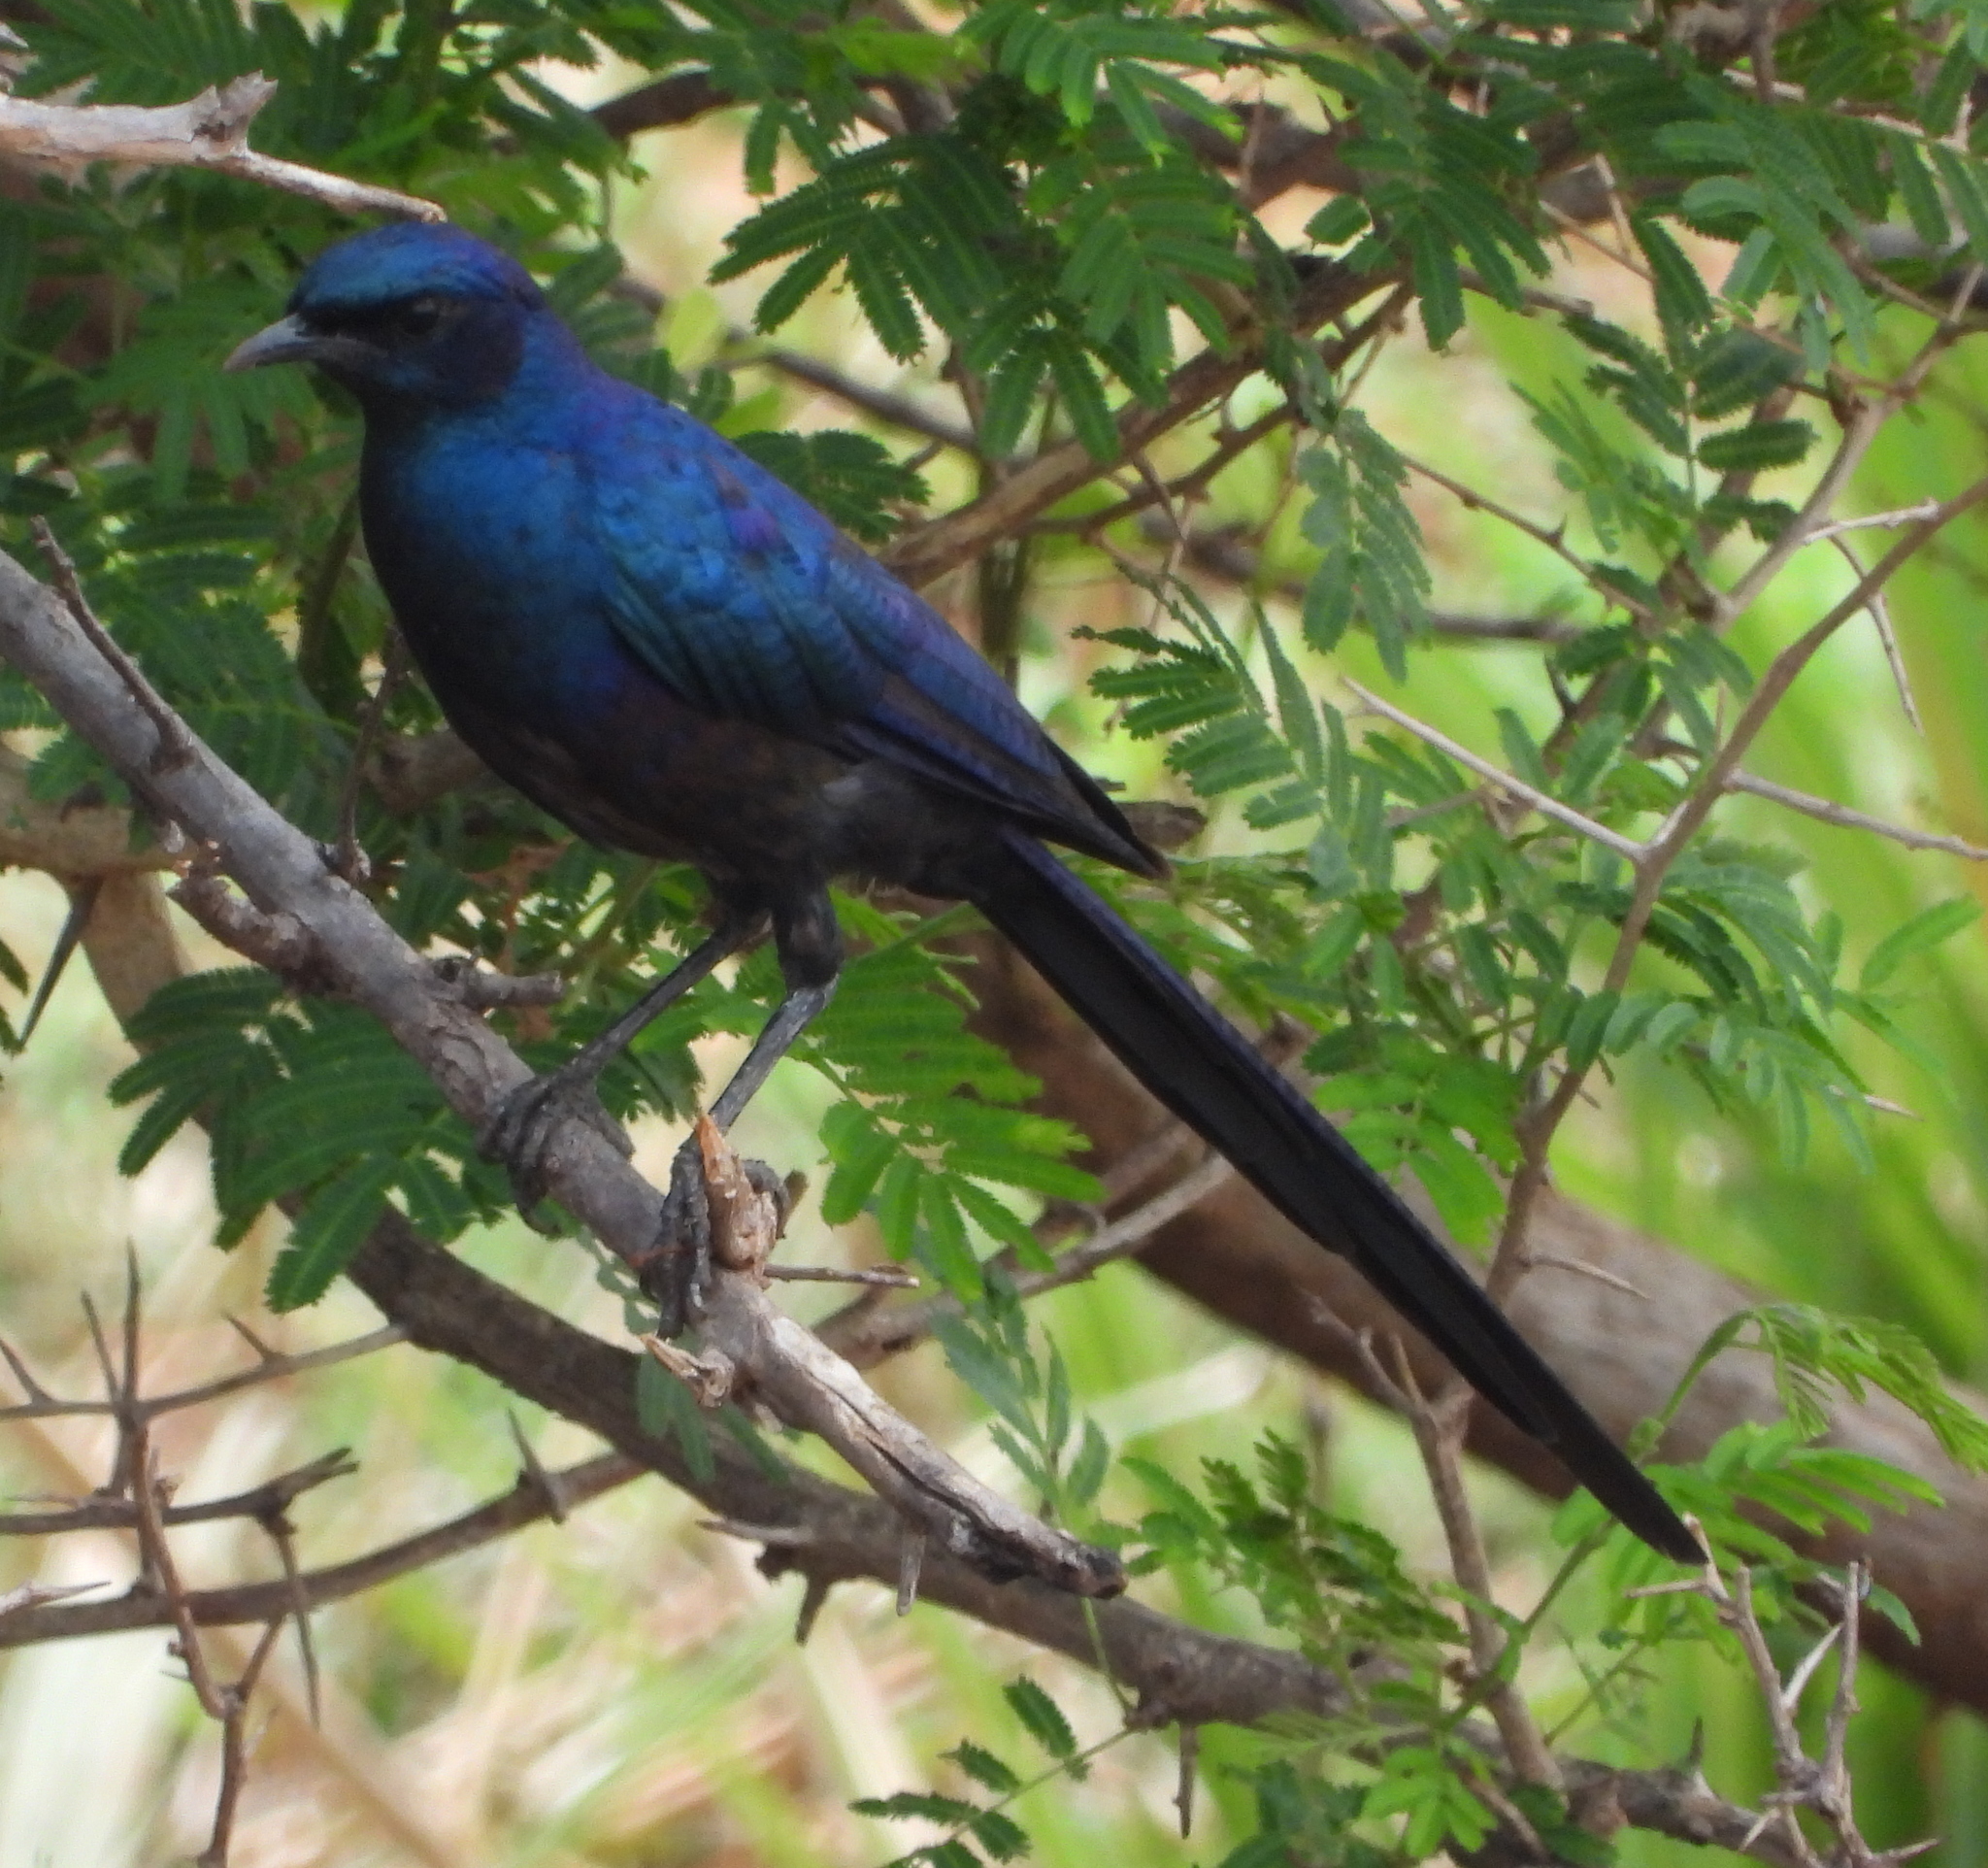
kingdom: Animalia
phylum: Chordata
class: Aves
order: Passeriformes
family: Sturnidae
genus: Lamprotornis
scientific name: Lamprotornis mevesii
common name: Meves's starling
